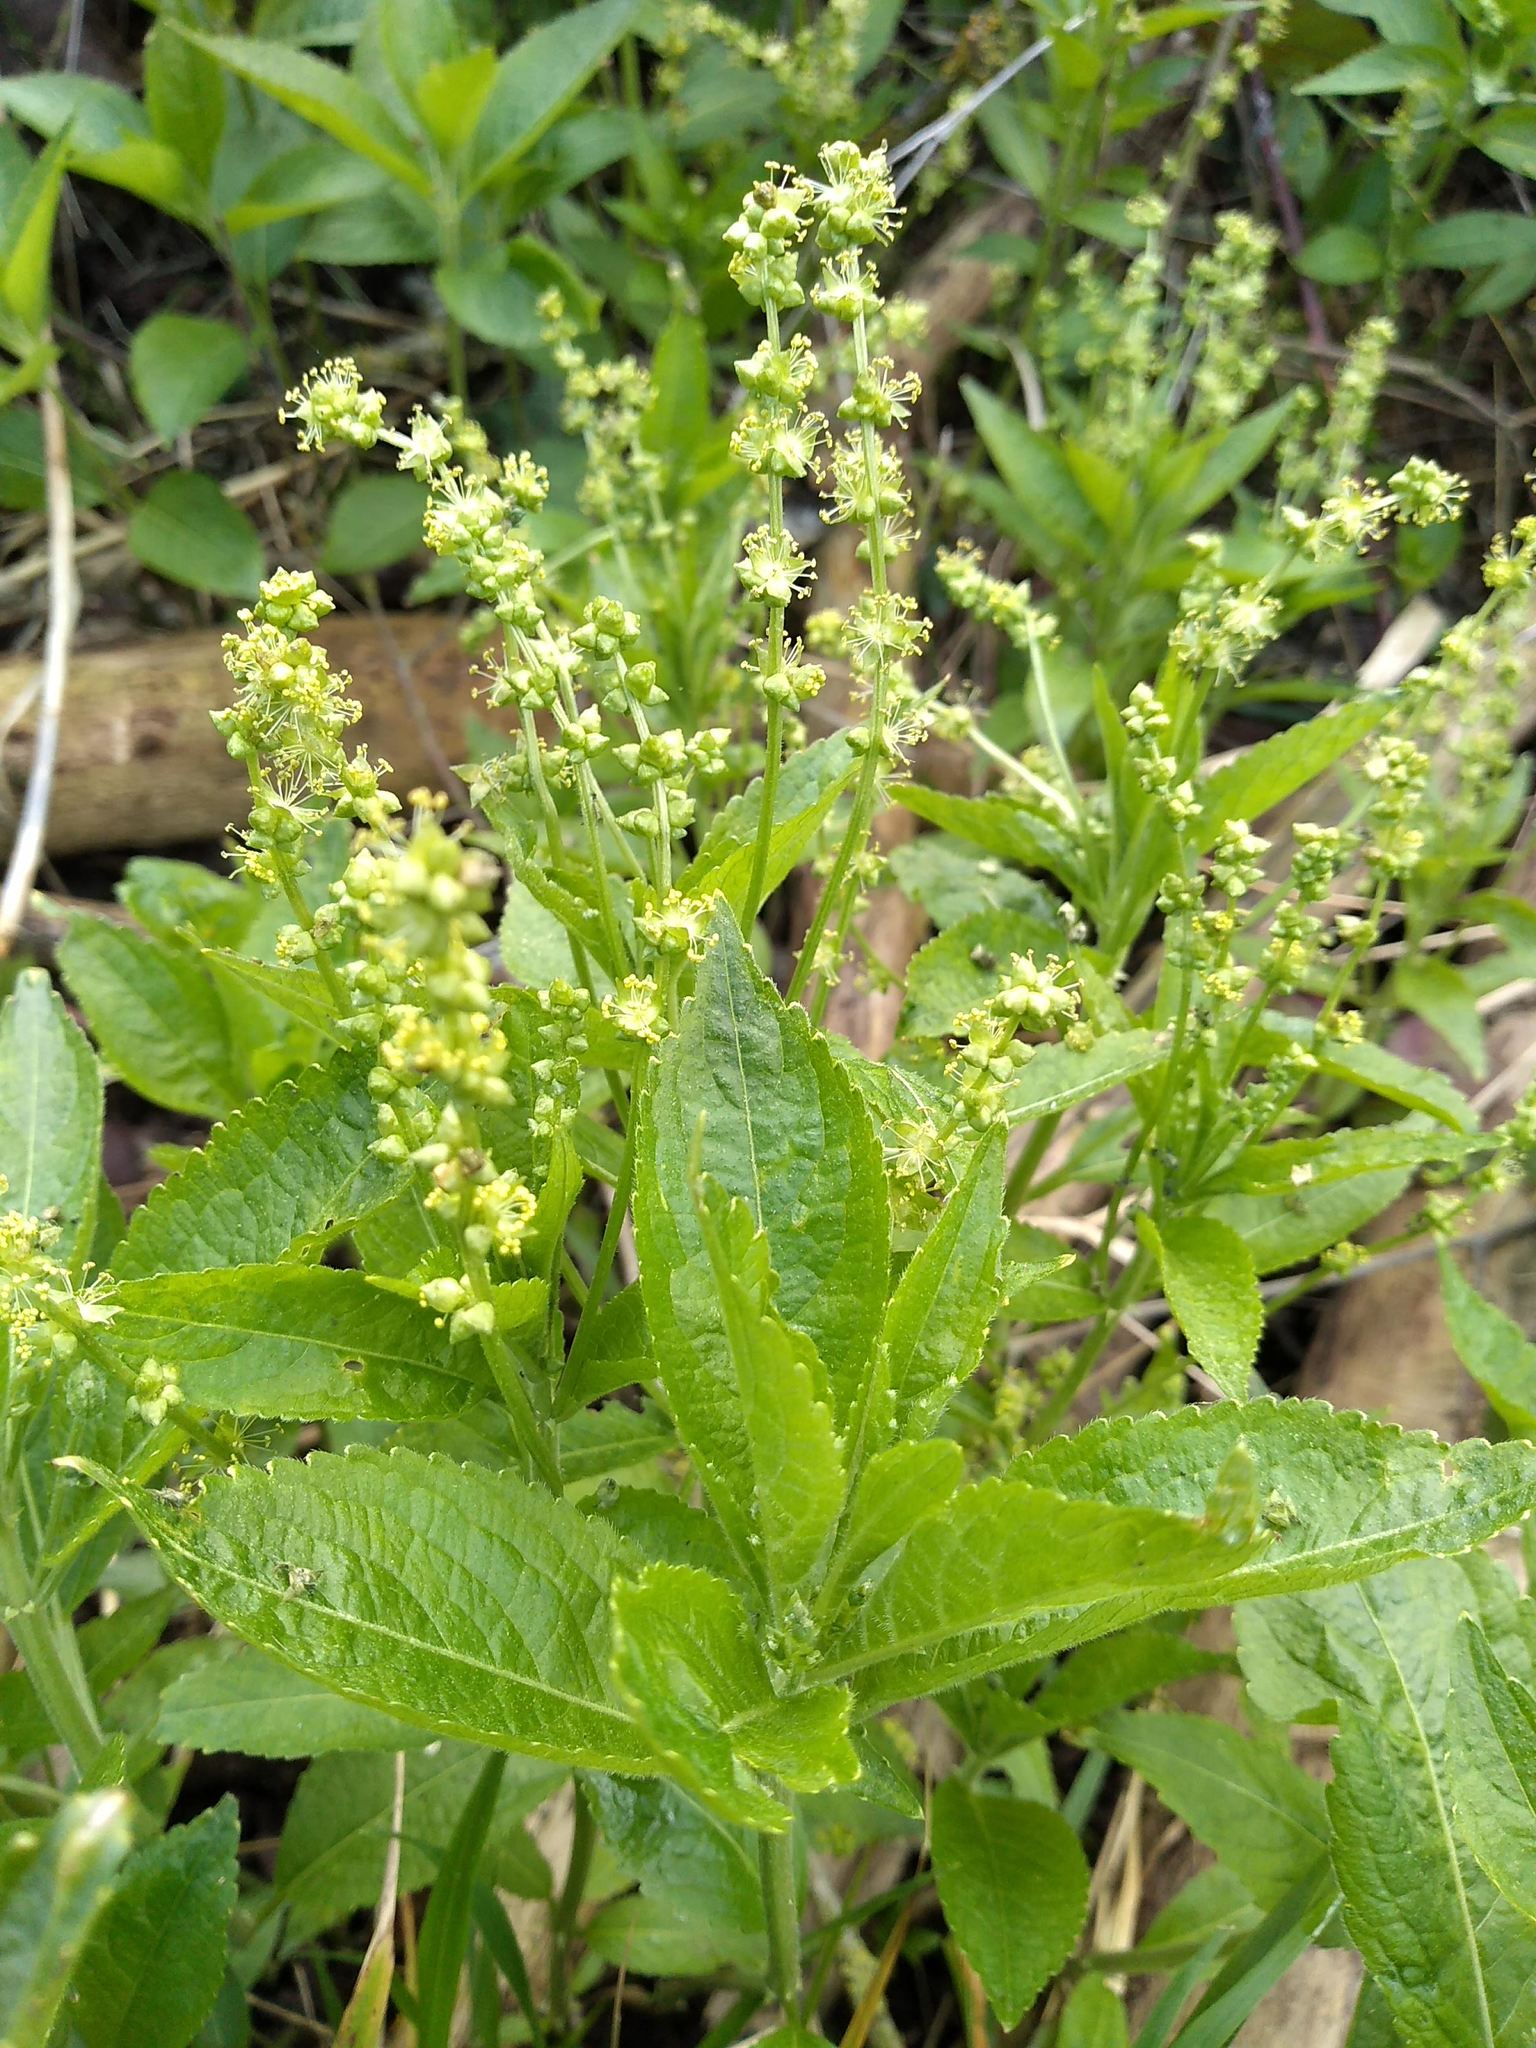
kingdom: Plantae
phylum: Tracheophyta
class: Magnoliopsida
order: Malpighiales
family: Euphorbiaceae
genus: Mercurialis
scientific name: Mercurialis perennis
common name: Dog mercury
